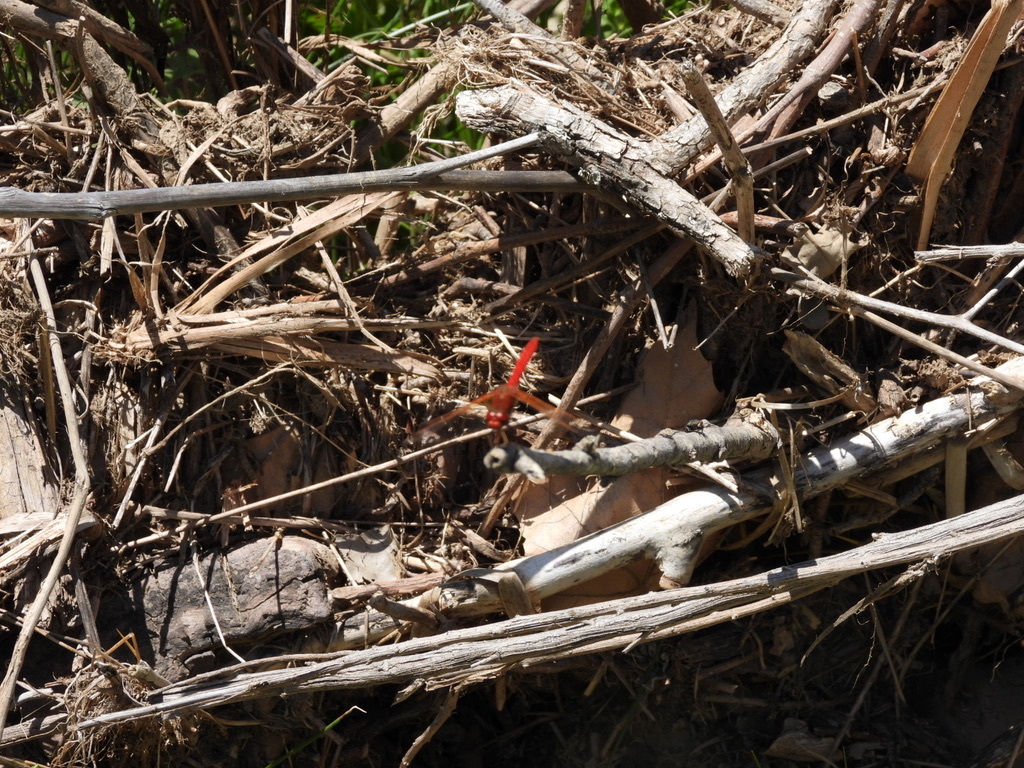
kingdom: Animalia
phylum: Arthropoda
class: Insecta
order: Odonata
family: Libellulidae
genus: Sympetrum
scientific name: Sympetrum illotum
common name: Cardinal meadowhawk
